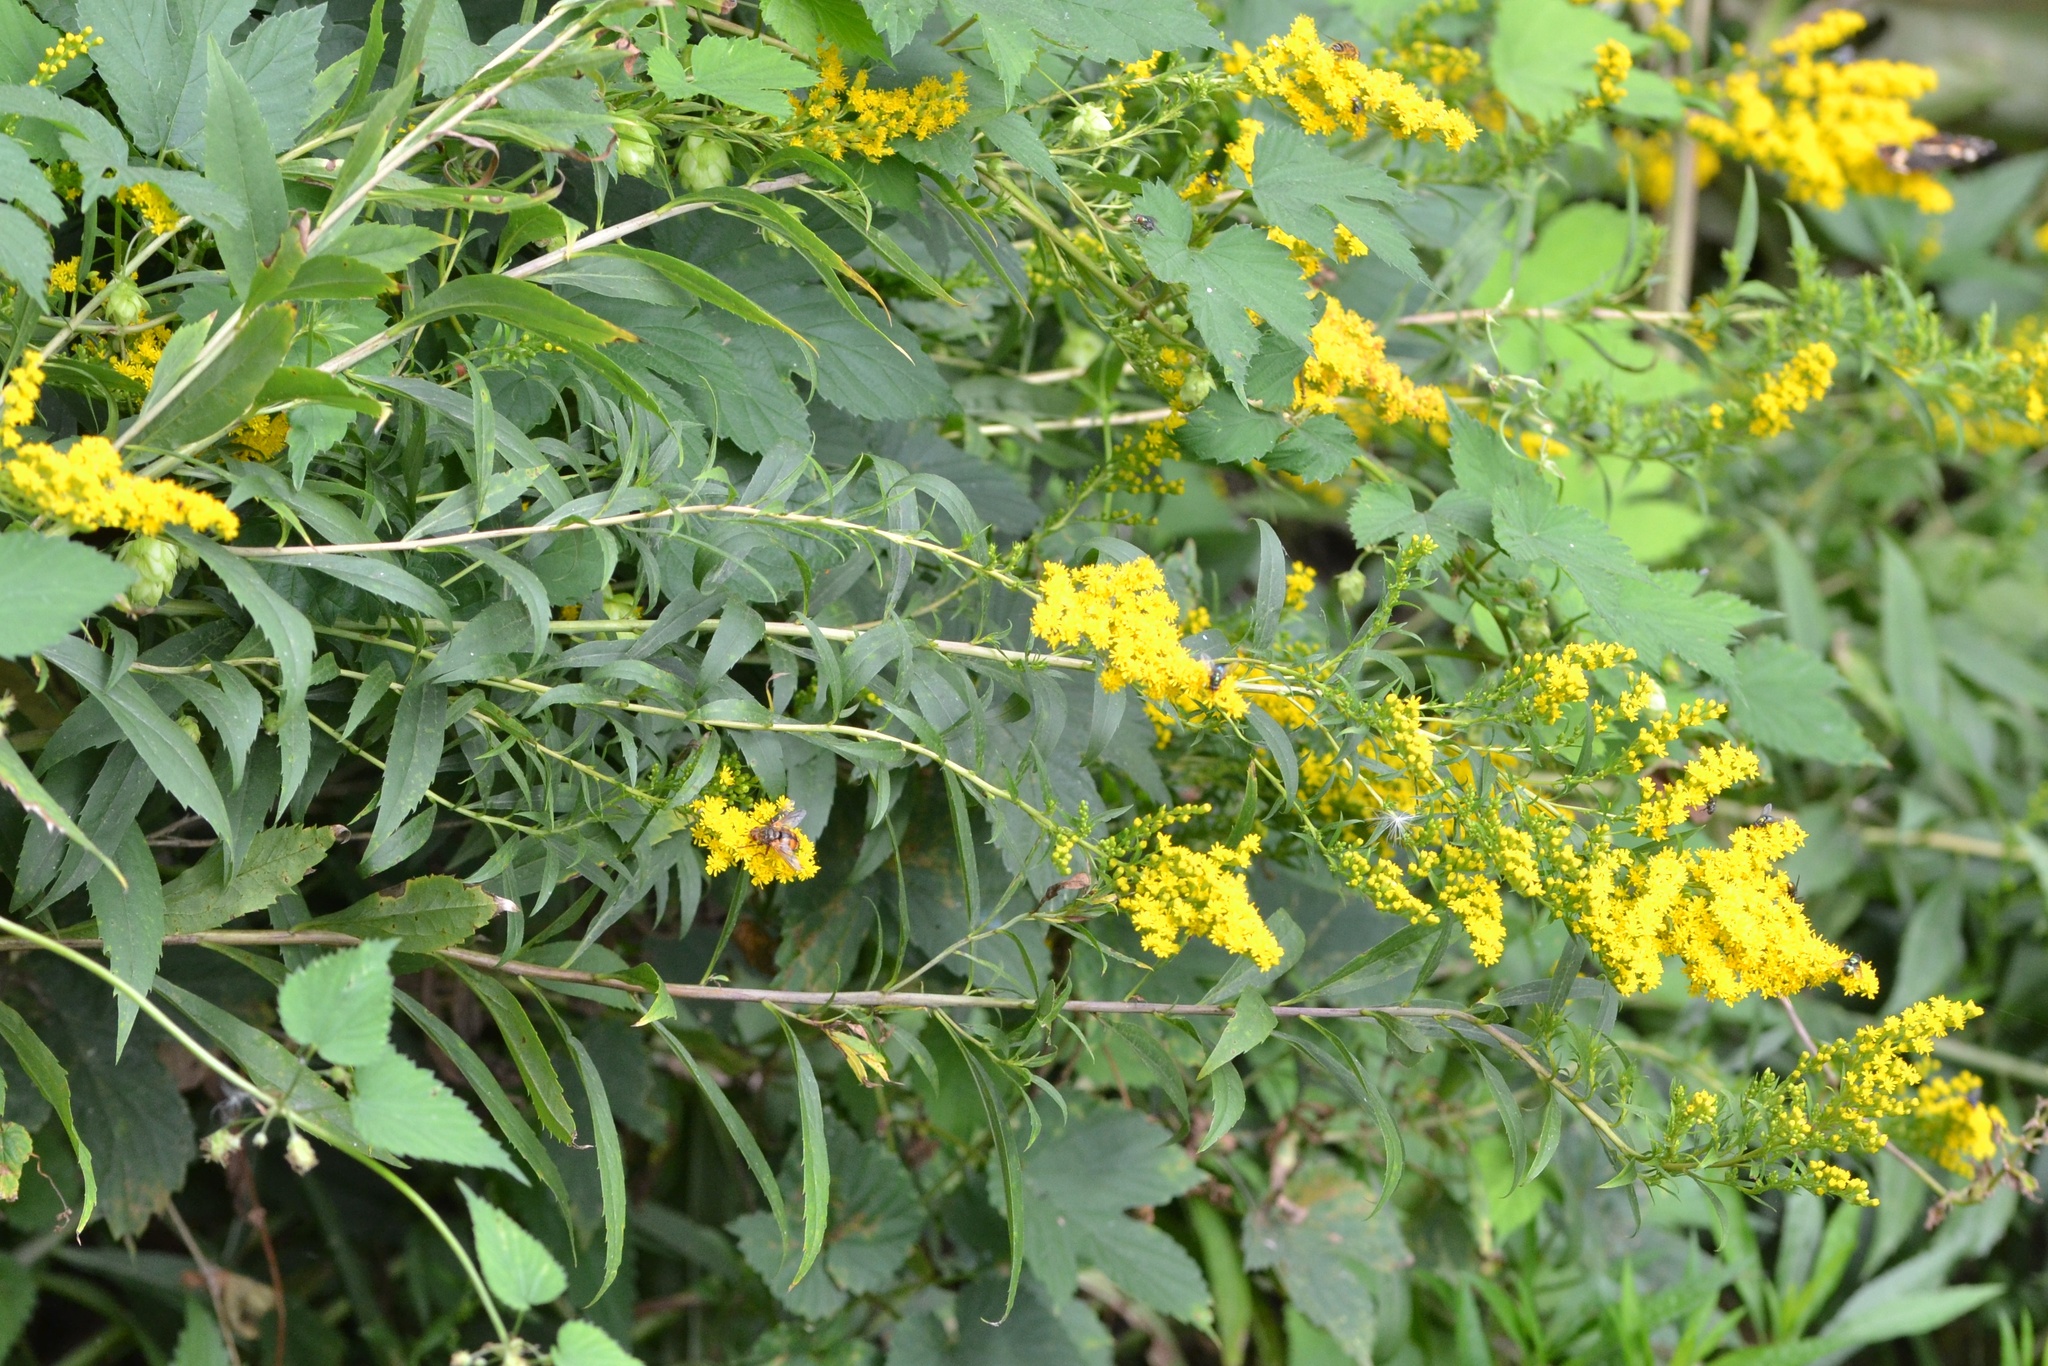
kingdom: Plantae
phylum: Tracheophyta
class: Magnoliopsida
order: Asterales
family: Asteraceae
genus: Solidago
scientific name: Solidago gigantea
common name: Giant goldenrod
